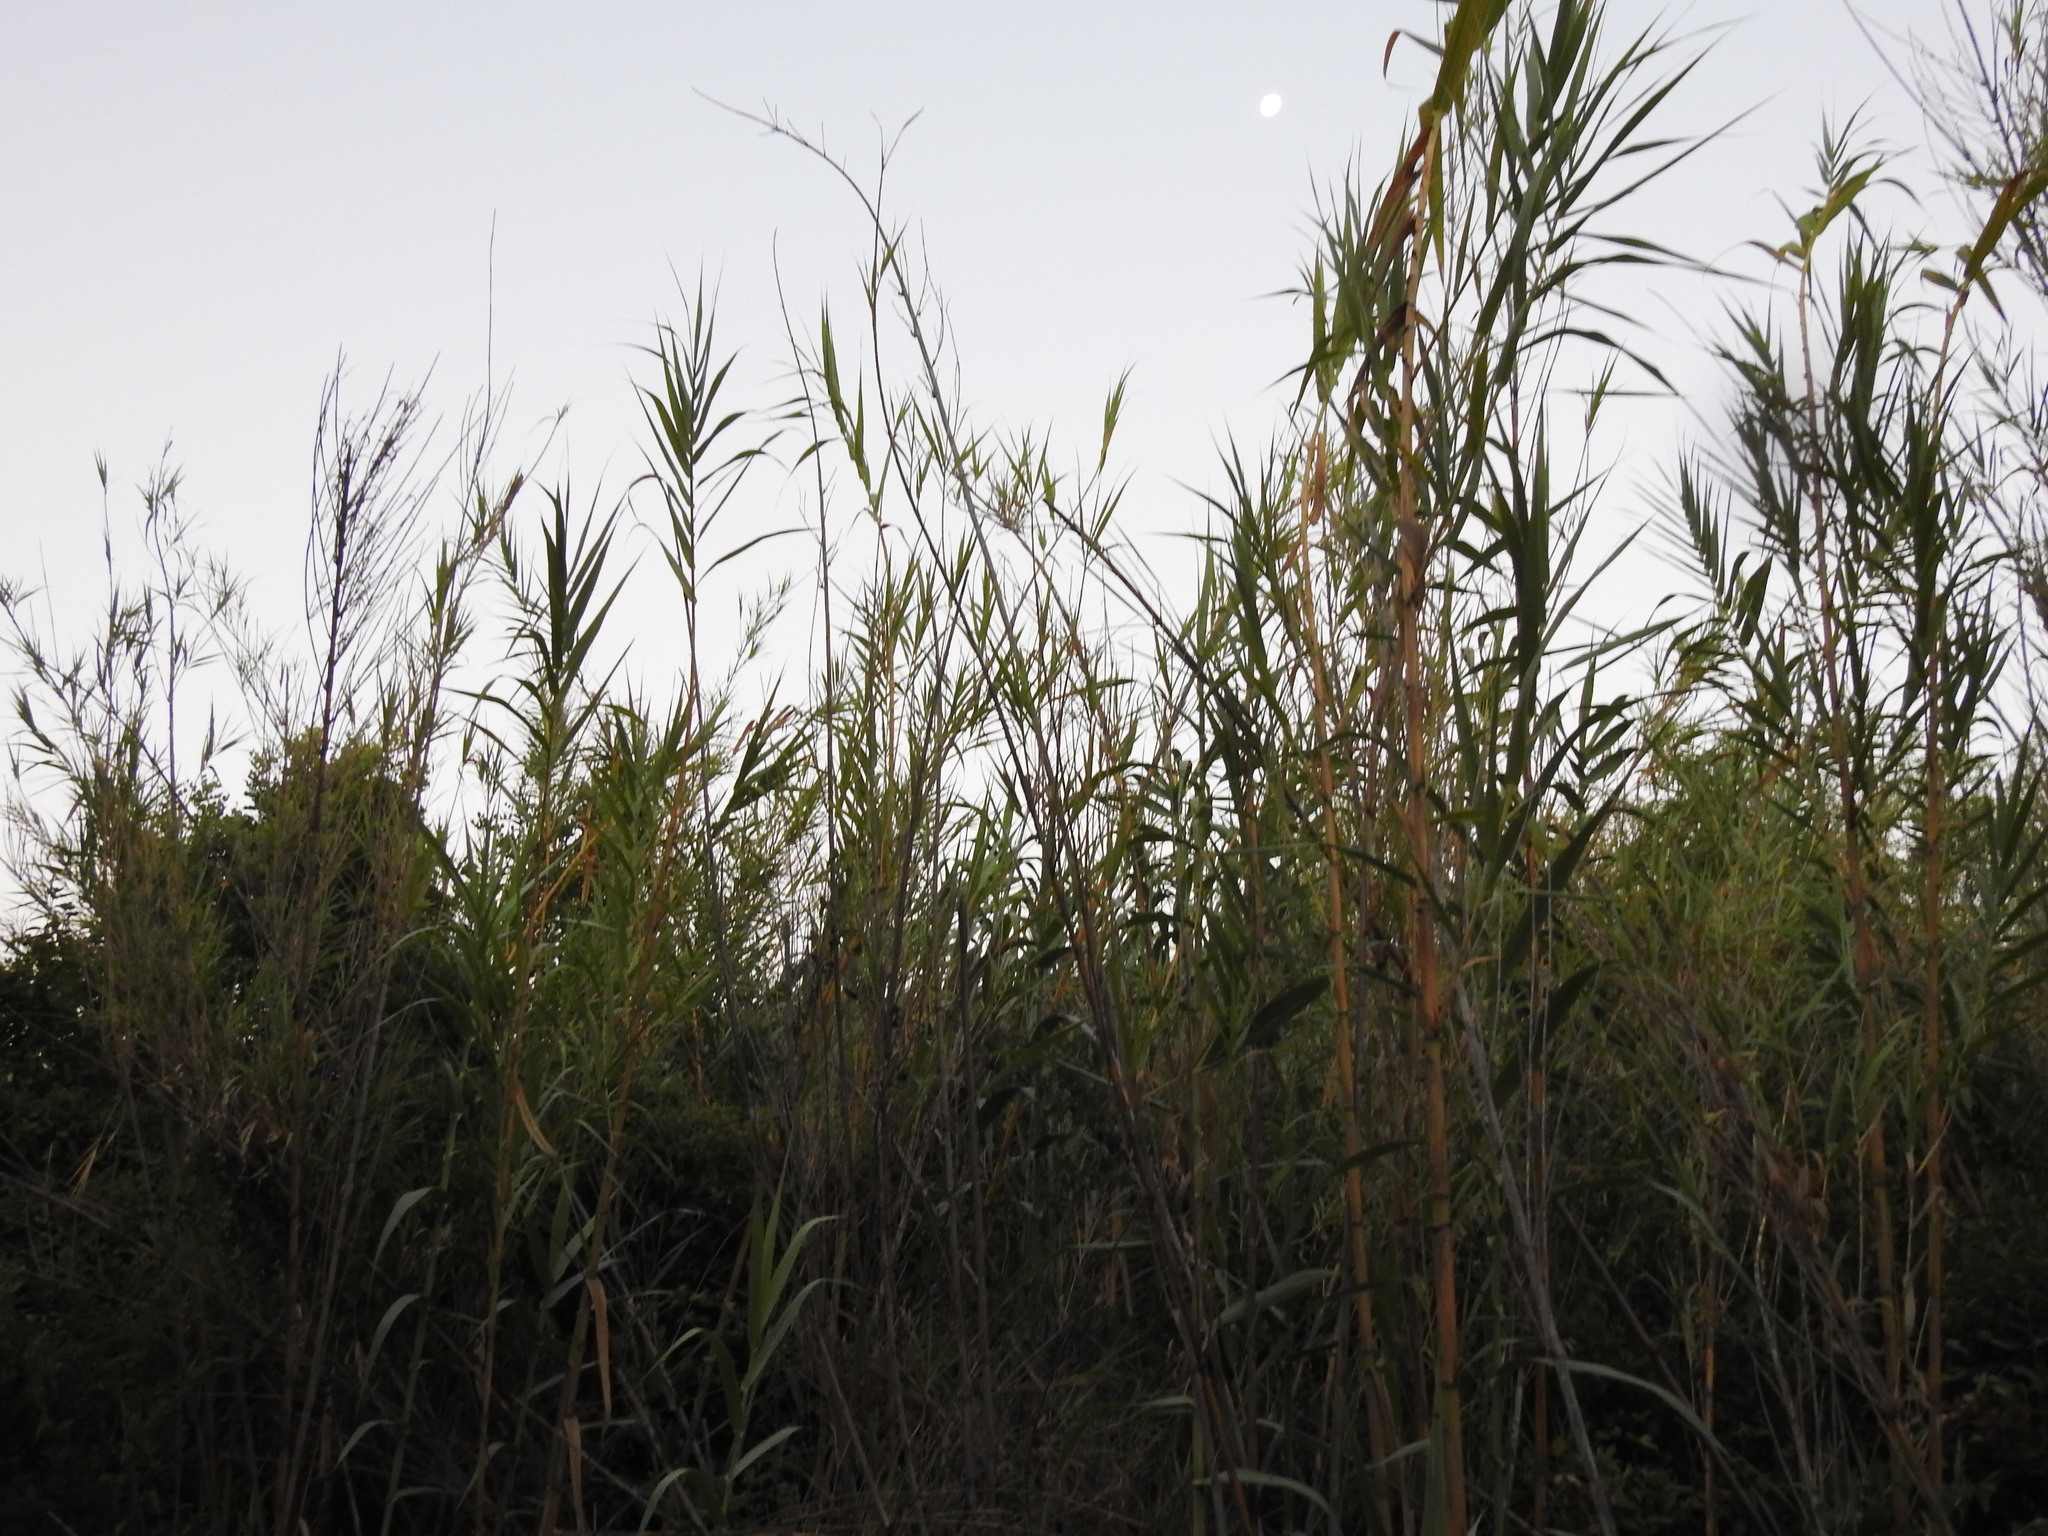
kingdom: Plantae
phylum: Tracheophyta
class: Liliopsida
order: Poales
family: Poaceae
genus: Arundo
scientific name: Arundo donax
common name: Giant reed
